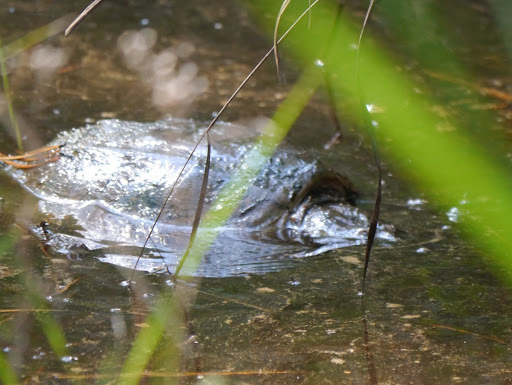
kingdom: Animalia
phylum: Chordata
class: Testudines
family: Chelydridae
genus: Chelydra
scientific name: Chelydra serpentina
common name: Common snapping turtle
